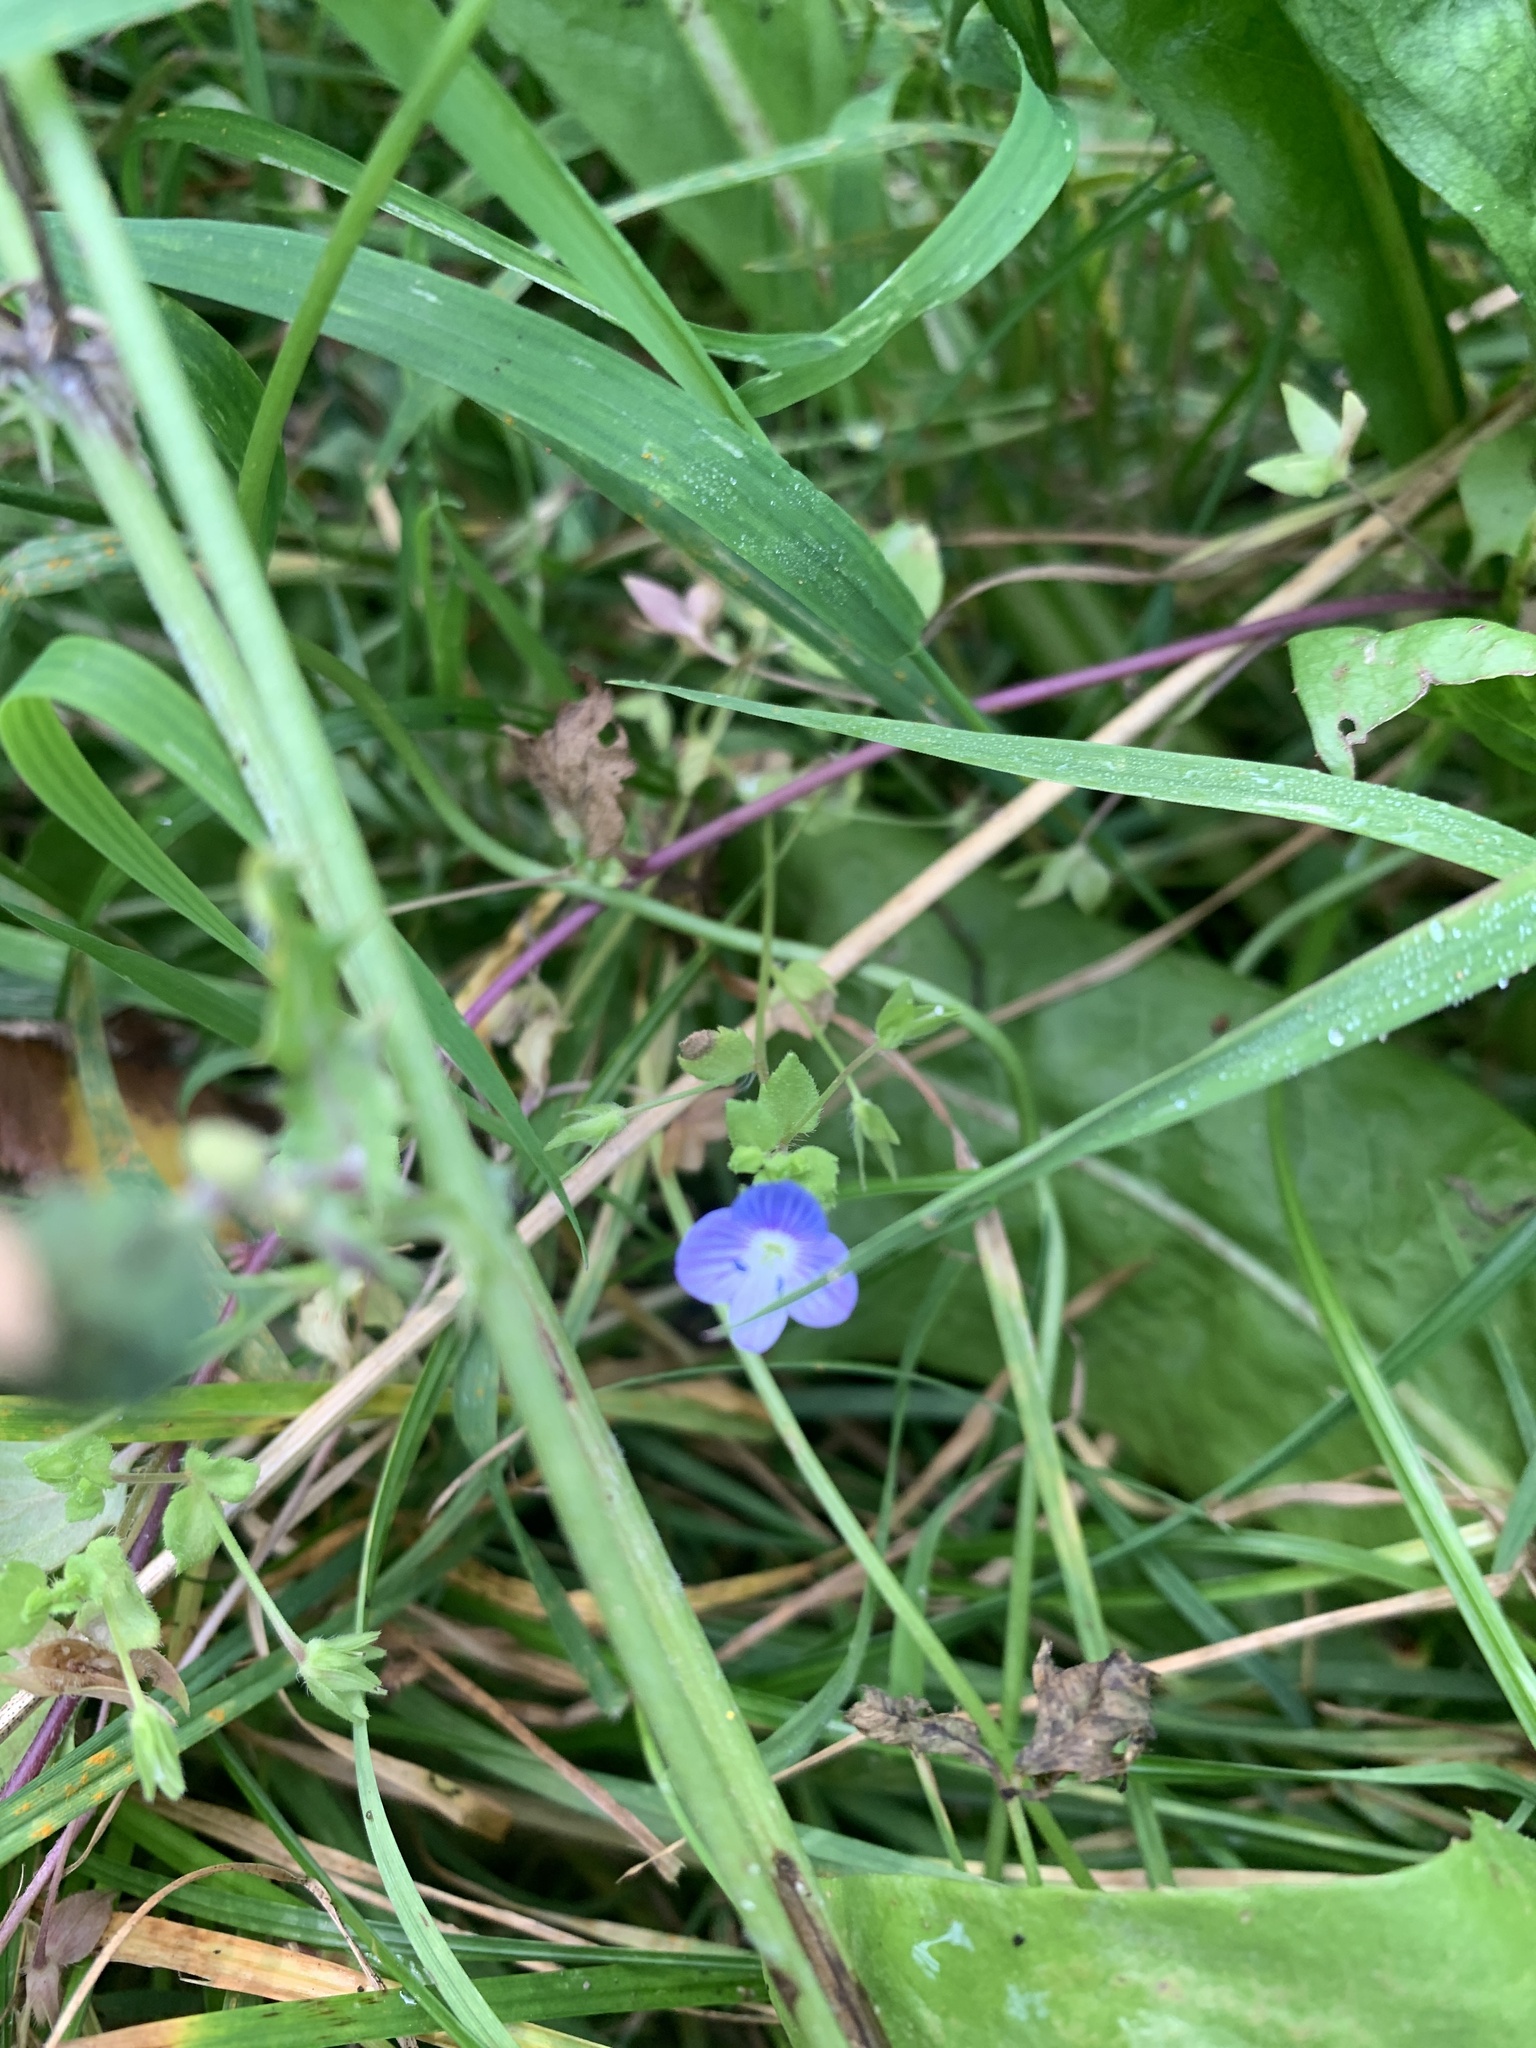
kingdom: Plantae
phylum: Tracheophyta
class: Magnoliopsida
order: Lamiales
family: Plantaginaceae
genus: Veronica
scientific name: Veronica persica
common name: Common field-speedwell
